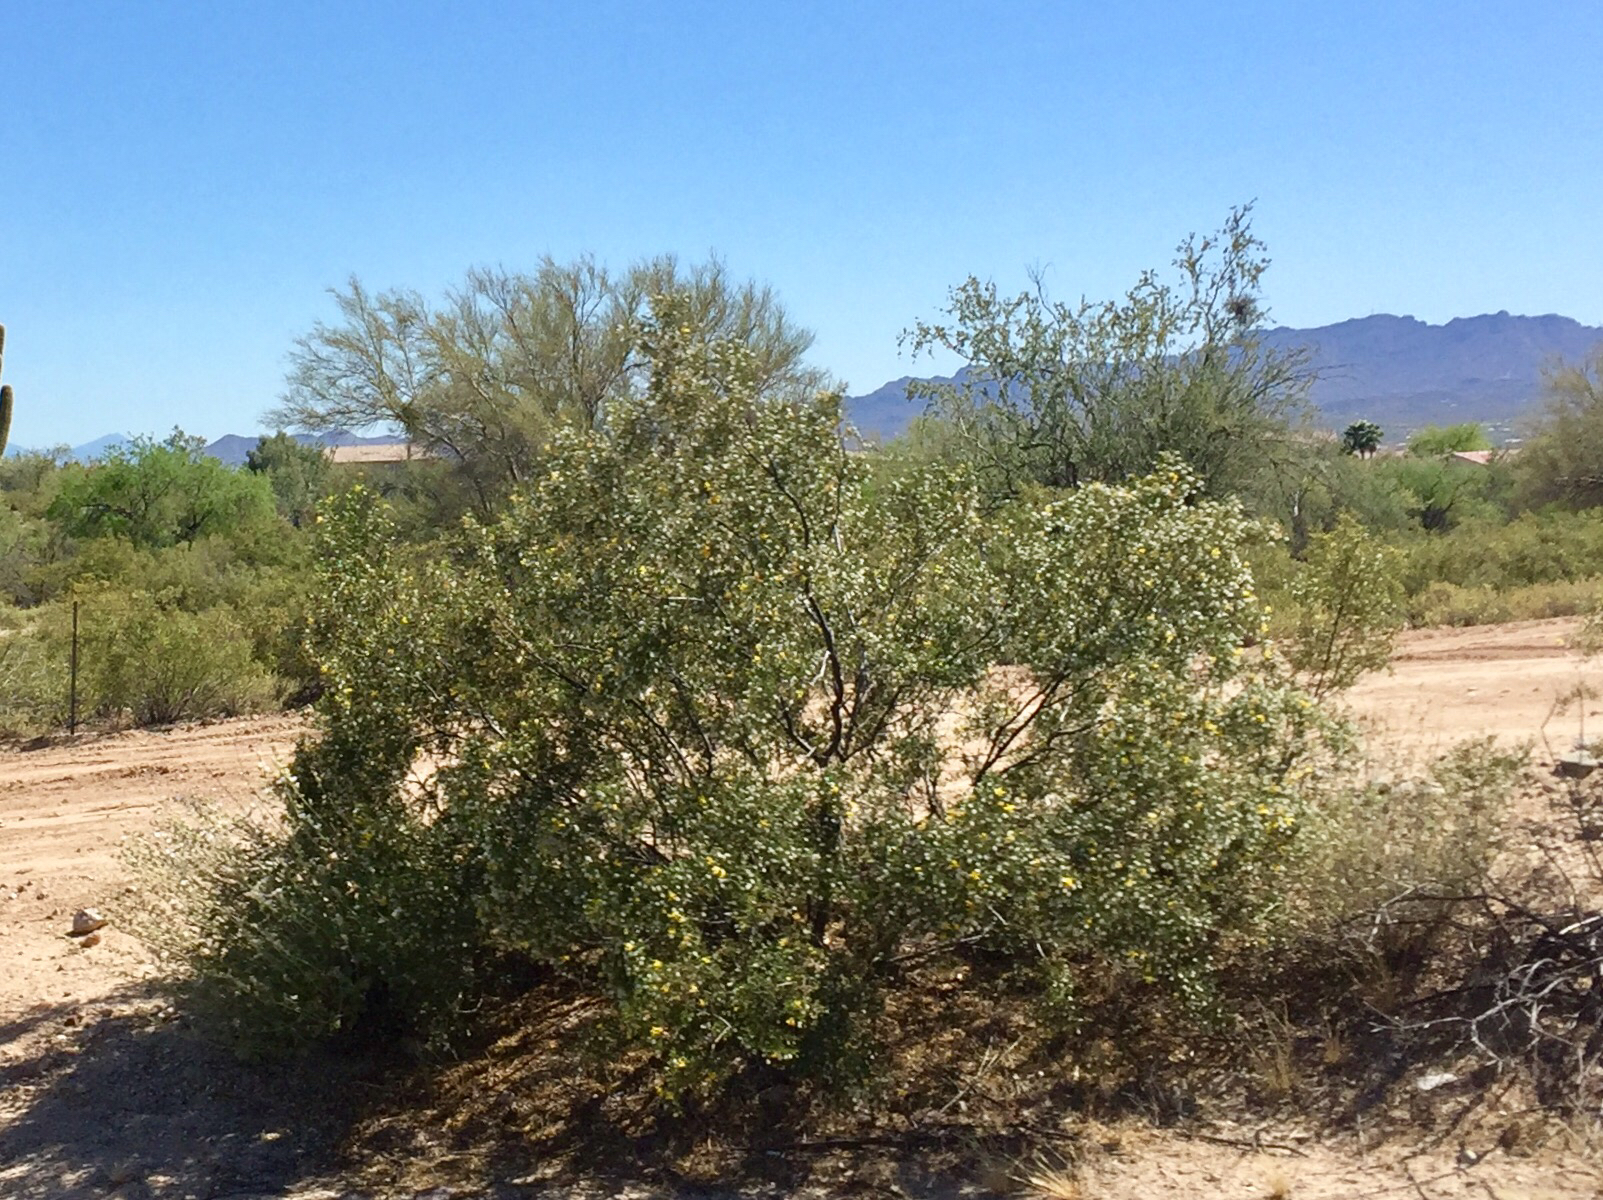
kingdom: Plantae
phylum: Tracheophyta
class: Magnoliopsida
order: Zygophyllales
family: Zygophyllaceae
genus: Larrea
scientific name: Larrea tridentata
